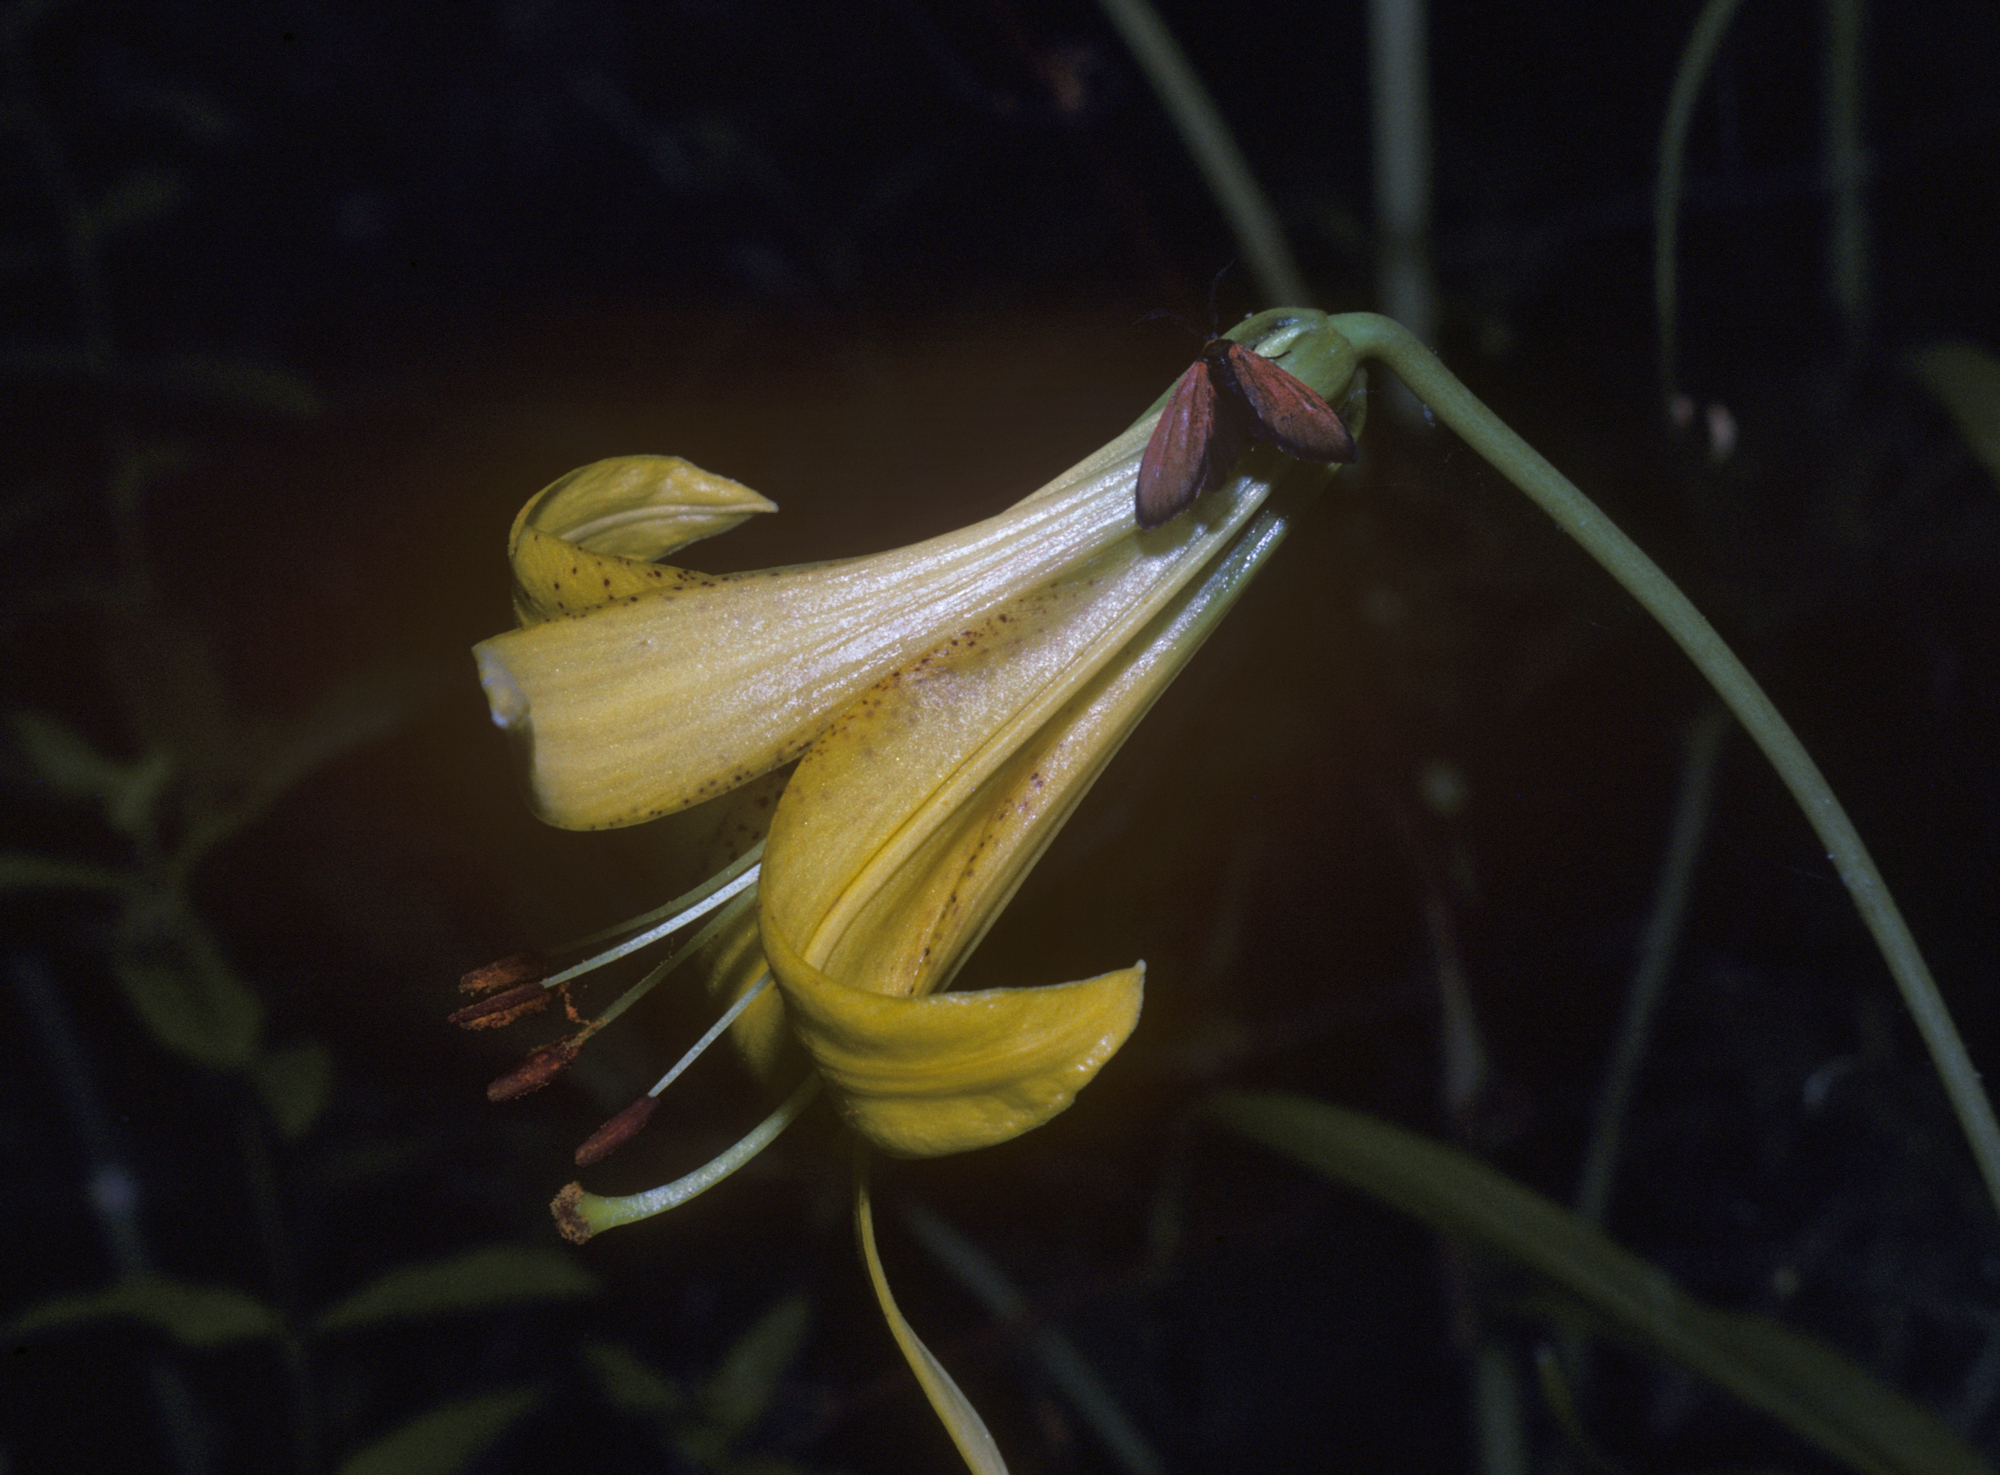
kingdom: Animalia
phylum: Arthropoda
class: Insecta
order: Lepidoptera
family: Zygaenidae
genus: Malthaca
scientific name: Malthaca
